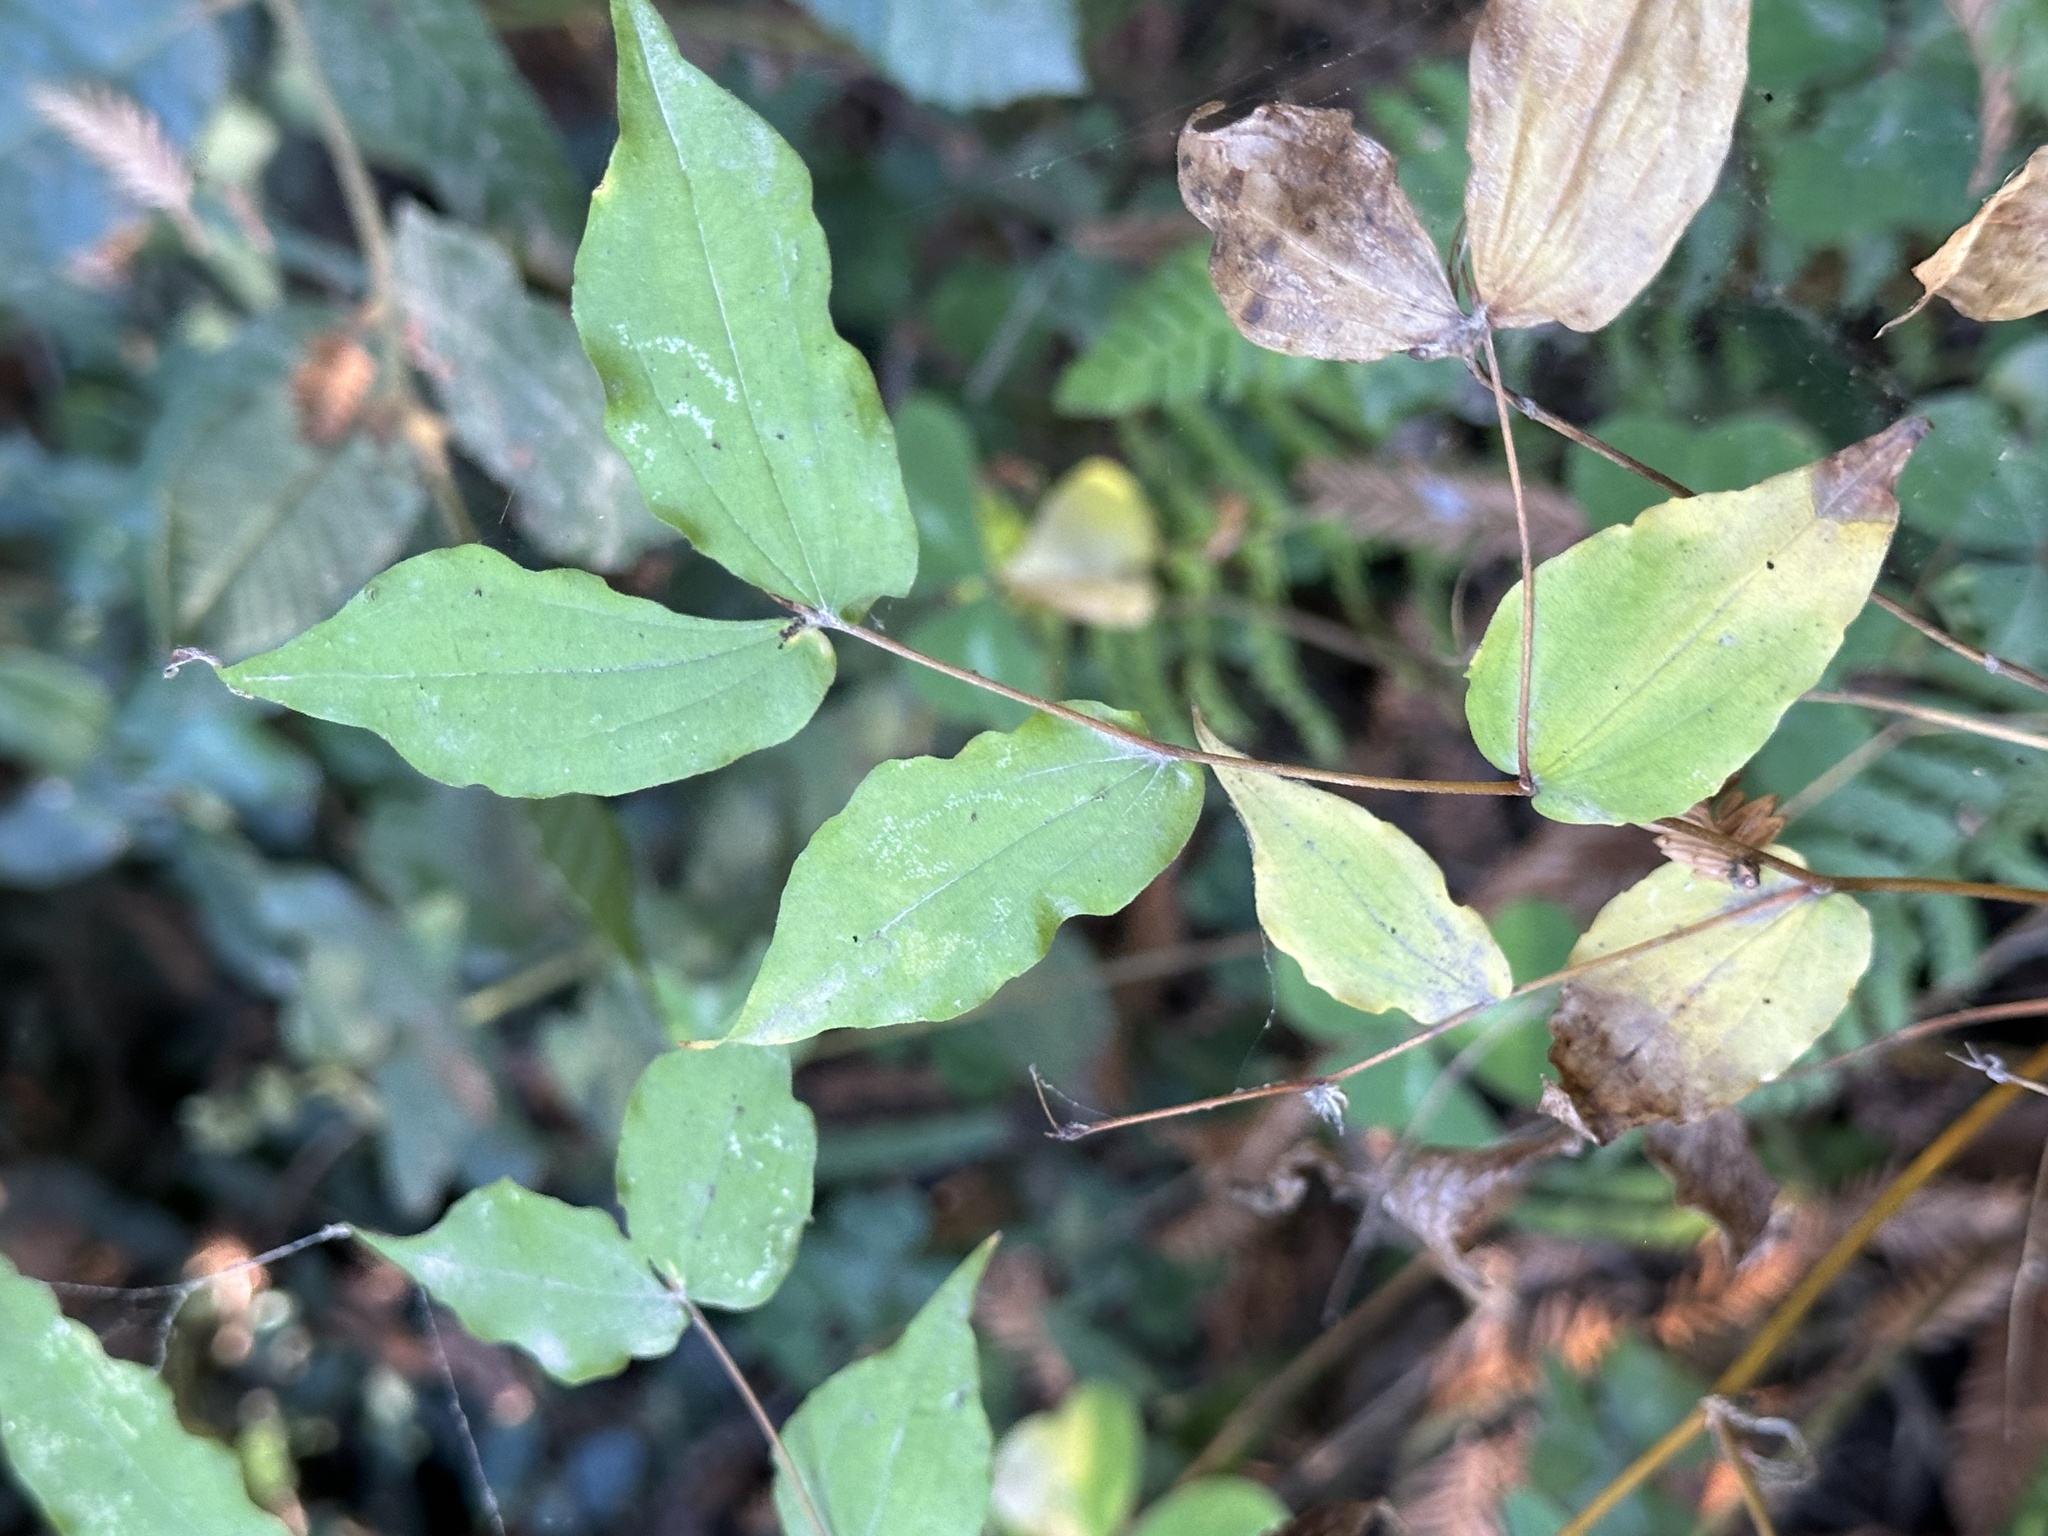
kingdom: Plantae
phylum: Tracheophyta
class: Liliopsida
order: Liliales
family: Liliaceae
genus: Prosartes
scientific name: Prosartes hookeri
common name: Fairy-bells
